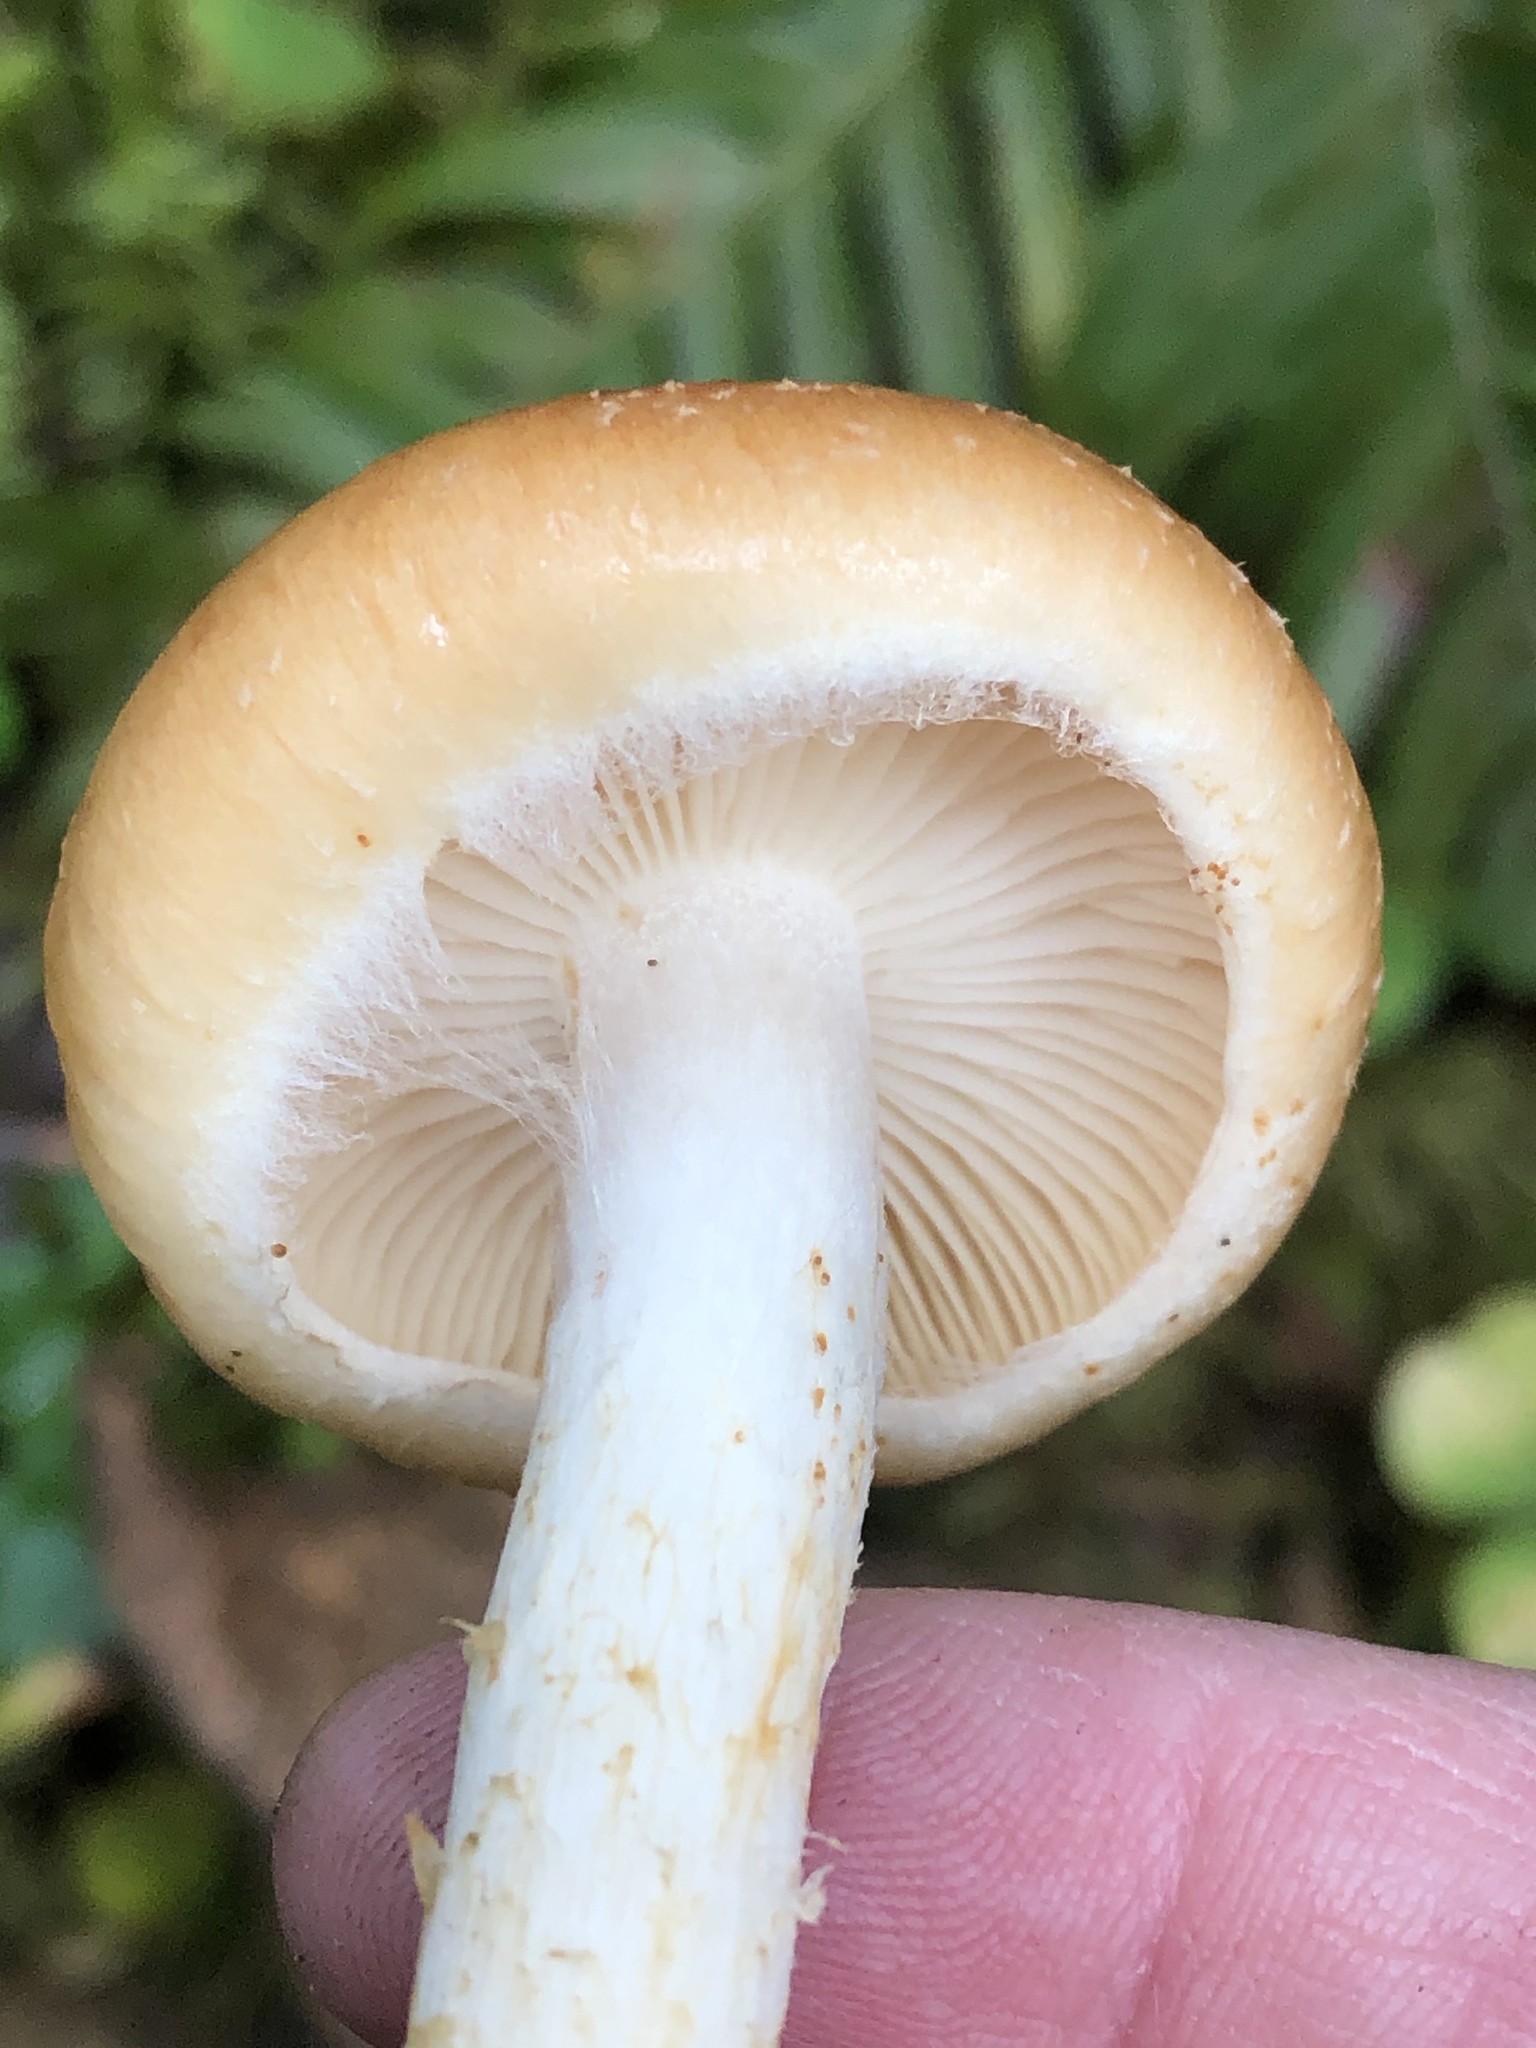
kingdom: Fungi
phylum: Basidiomycota
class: Agaricomycetes
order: Agaricales
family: Strophariaceae
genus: Pyrrhulomyces
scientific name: Pyrrhulomyces astragalinus
